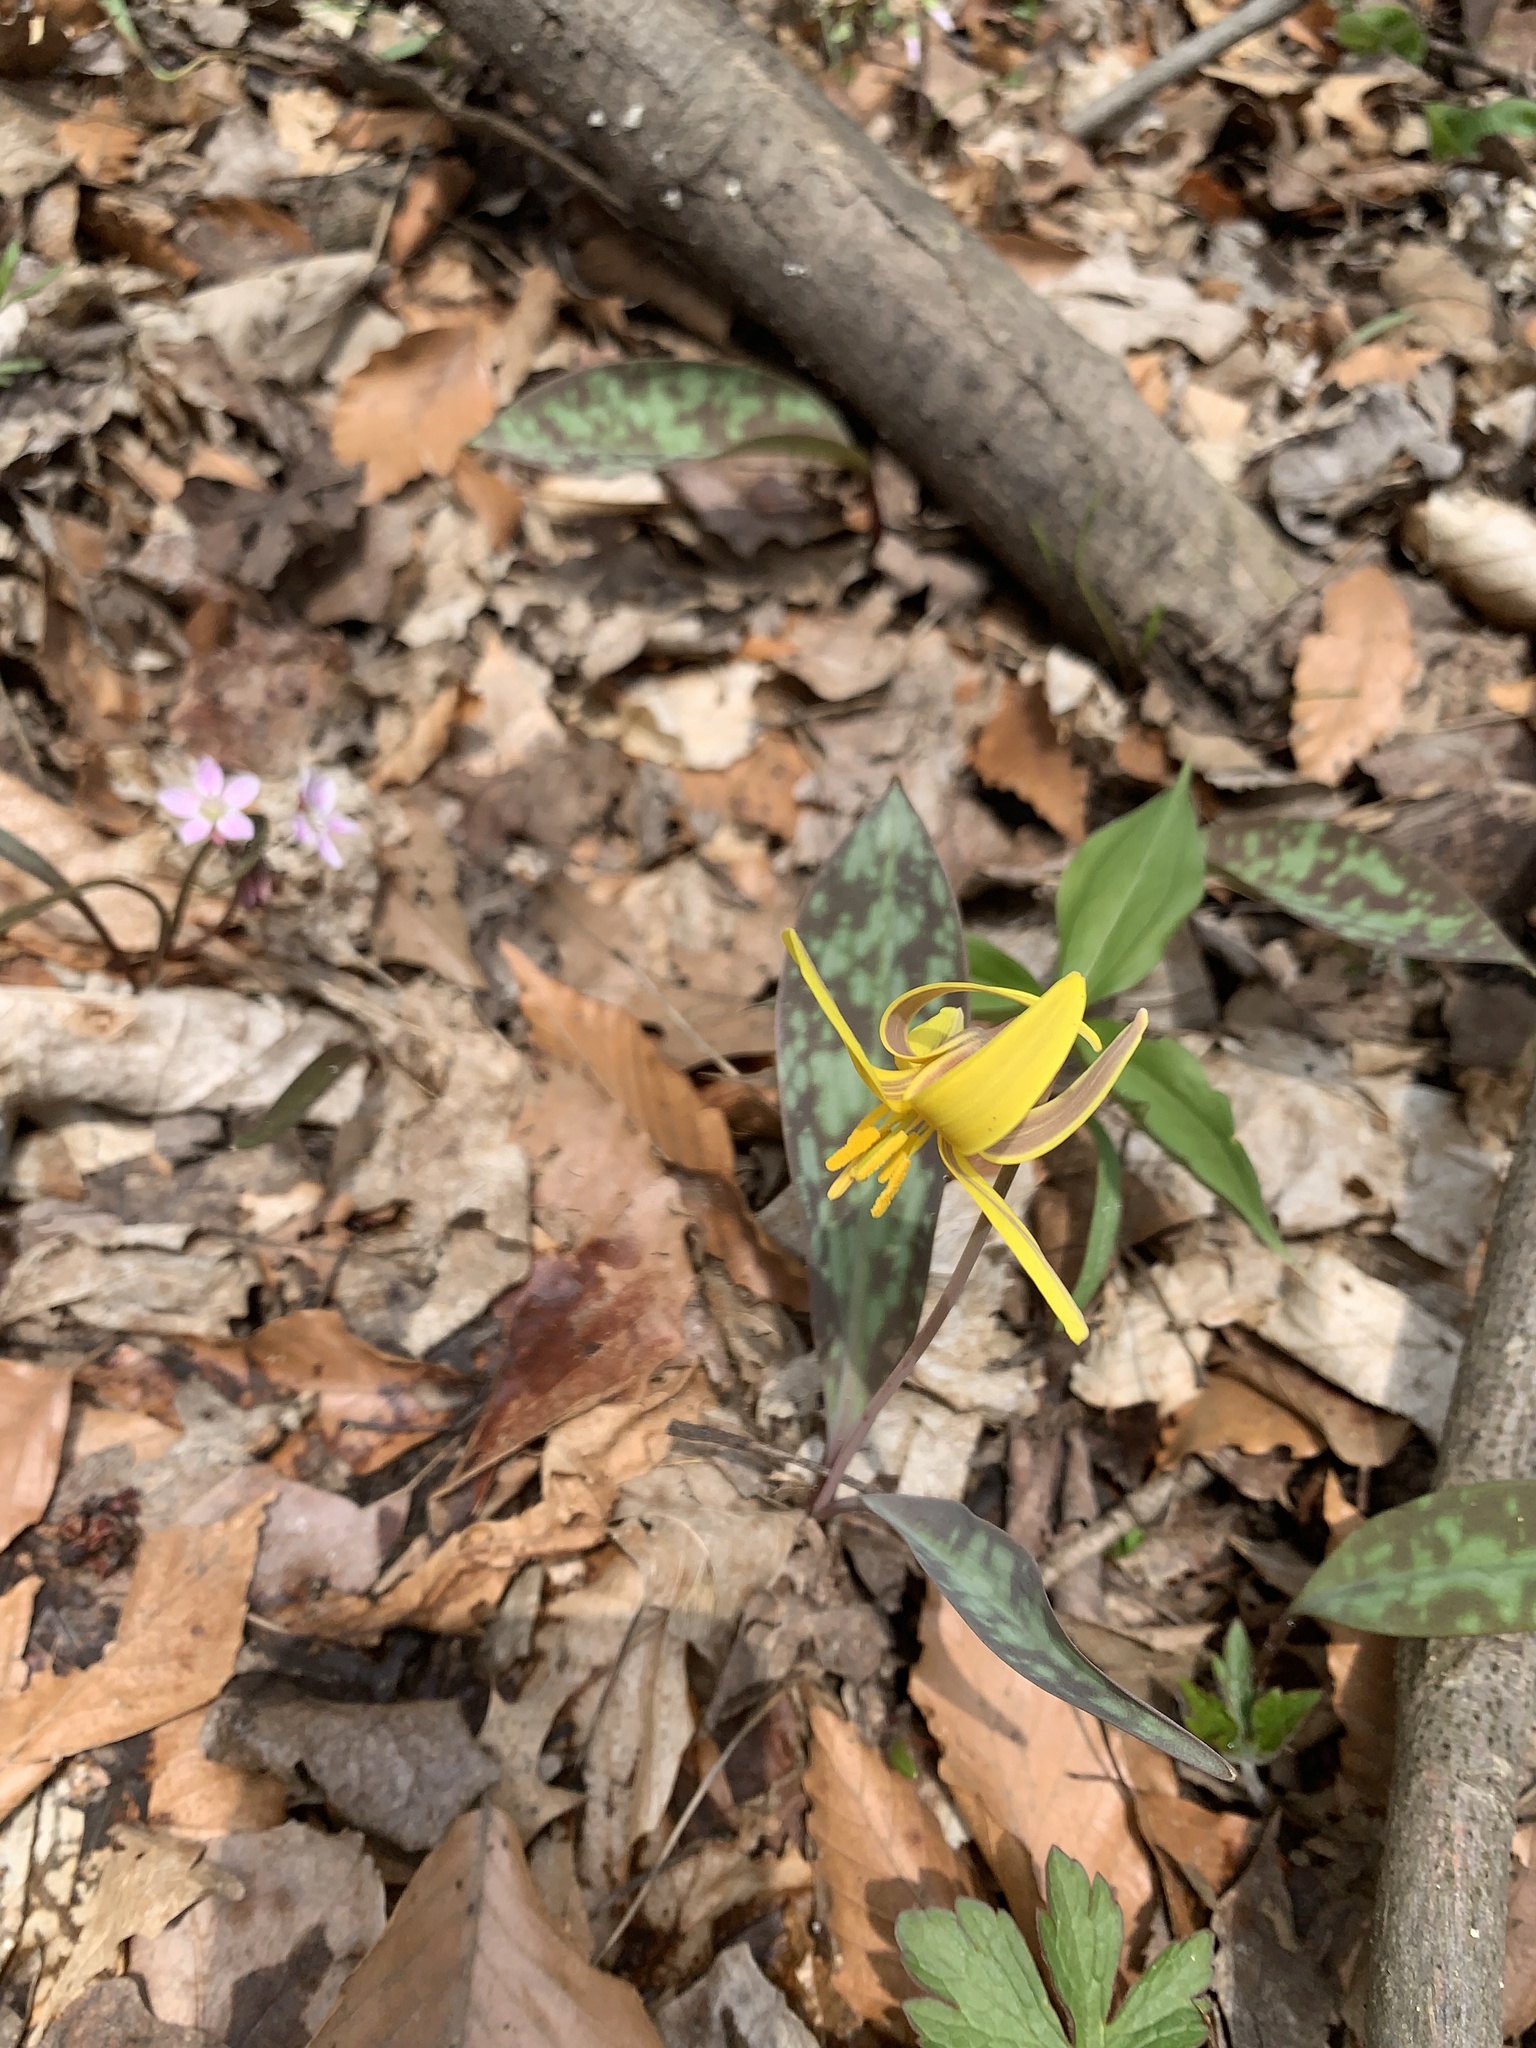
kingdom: Plantae
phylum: Tracheophyta
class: Liliopsida
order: Liliales
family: Liliaceae
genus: Erythronium
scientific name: Erythronium americanum
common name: Yellow adder's-tongue
